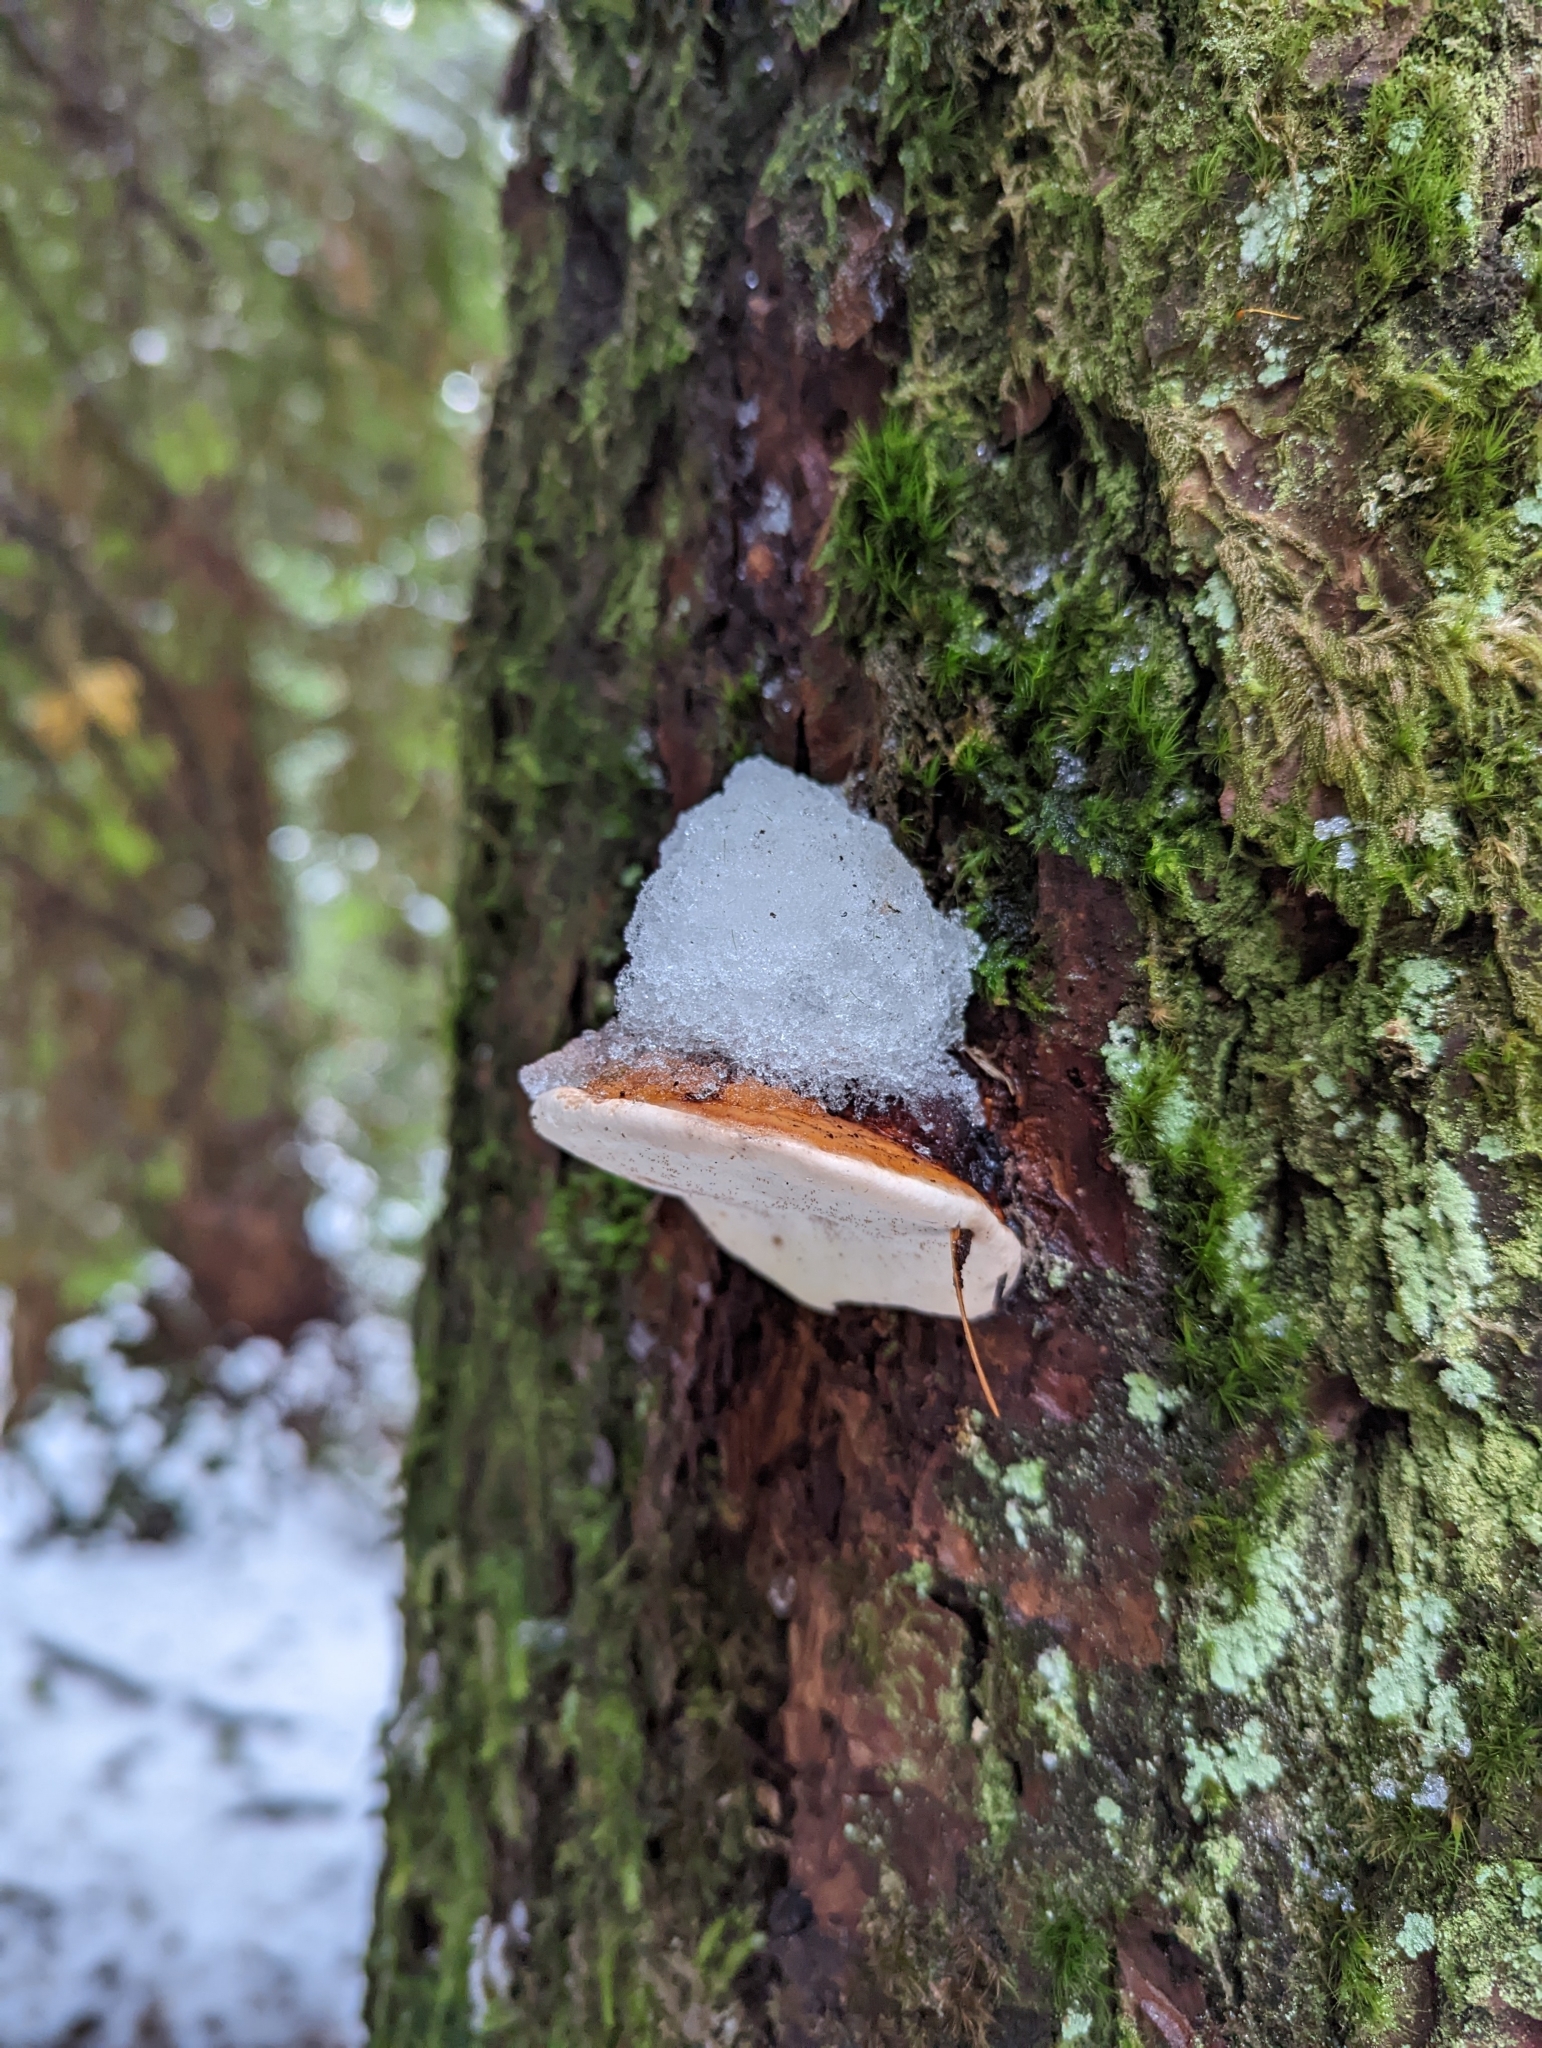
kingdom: Fungi
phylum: Basidiomycota
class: Agaricomycetes
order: Polyporales
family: Fomitopsidaceae
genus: Fomitopsis
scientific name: Fomitopsis mounceae
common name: Northern red belt
